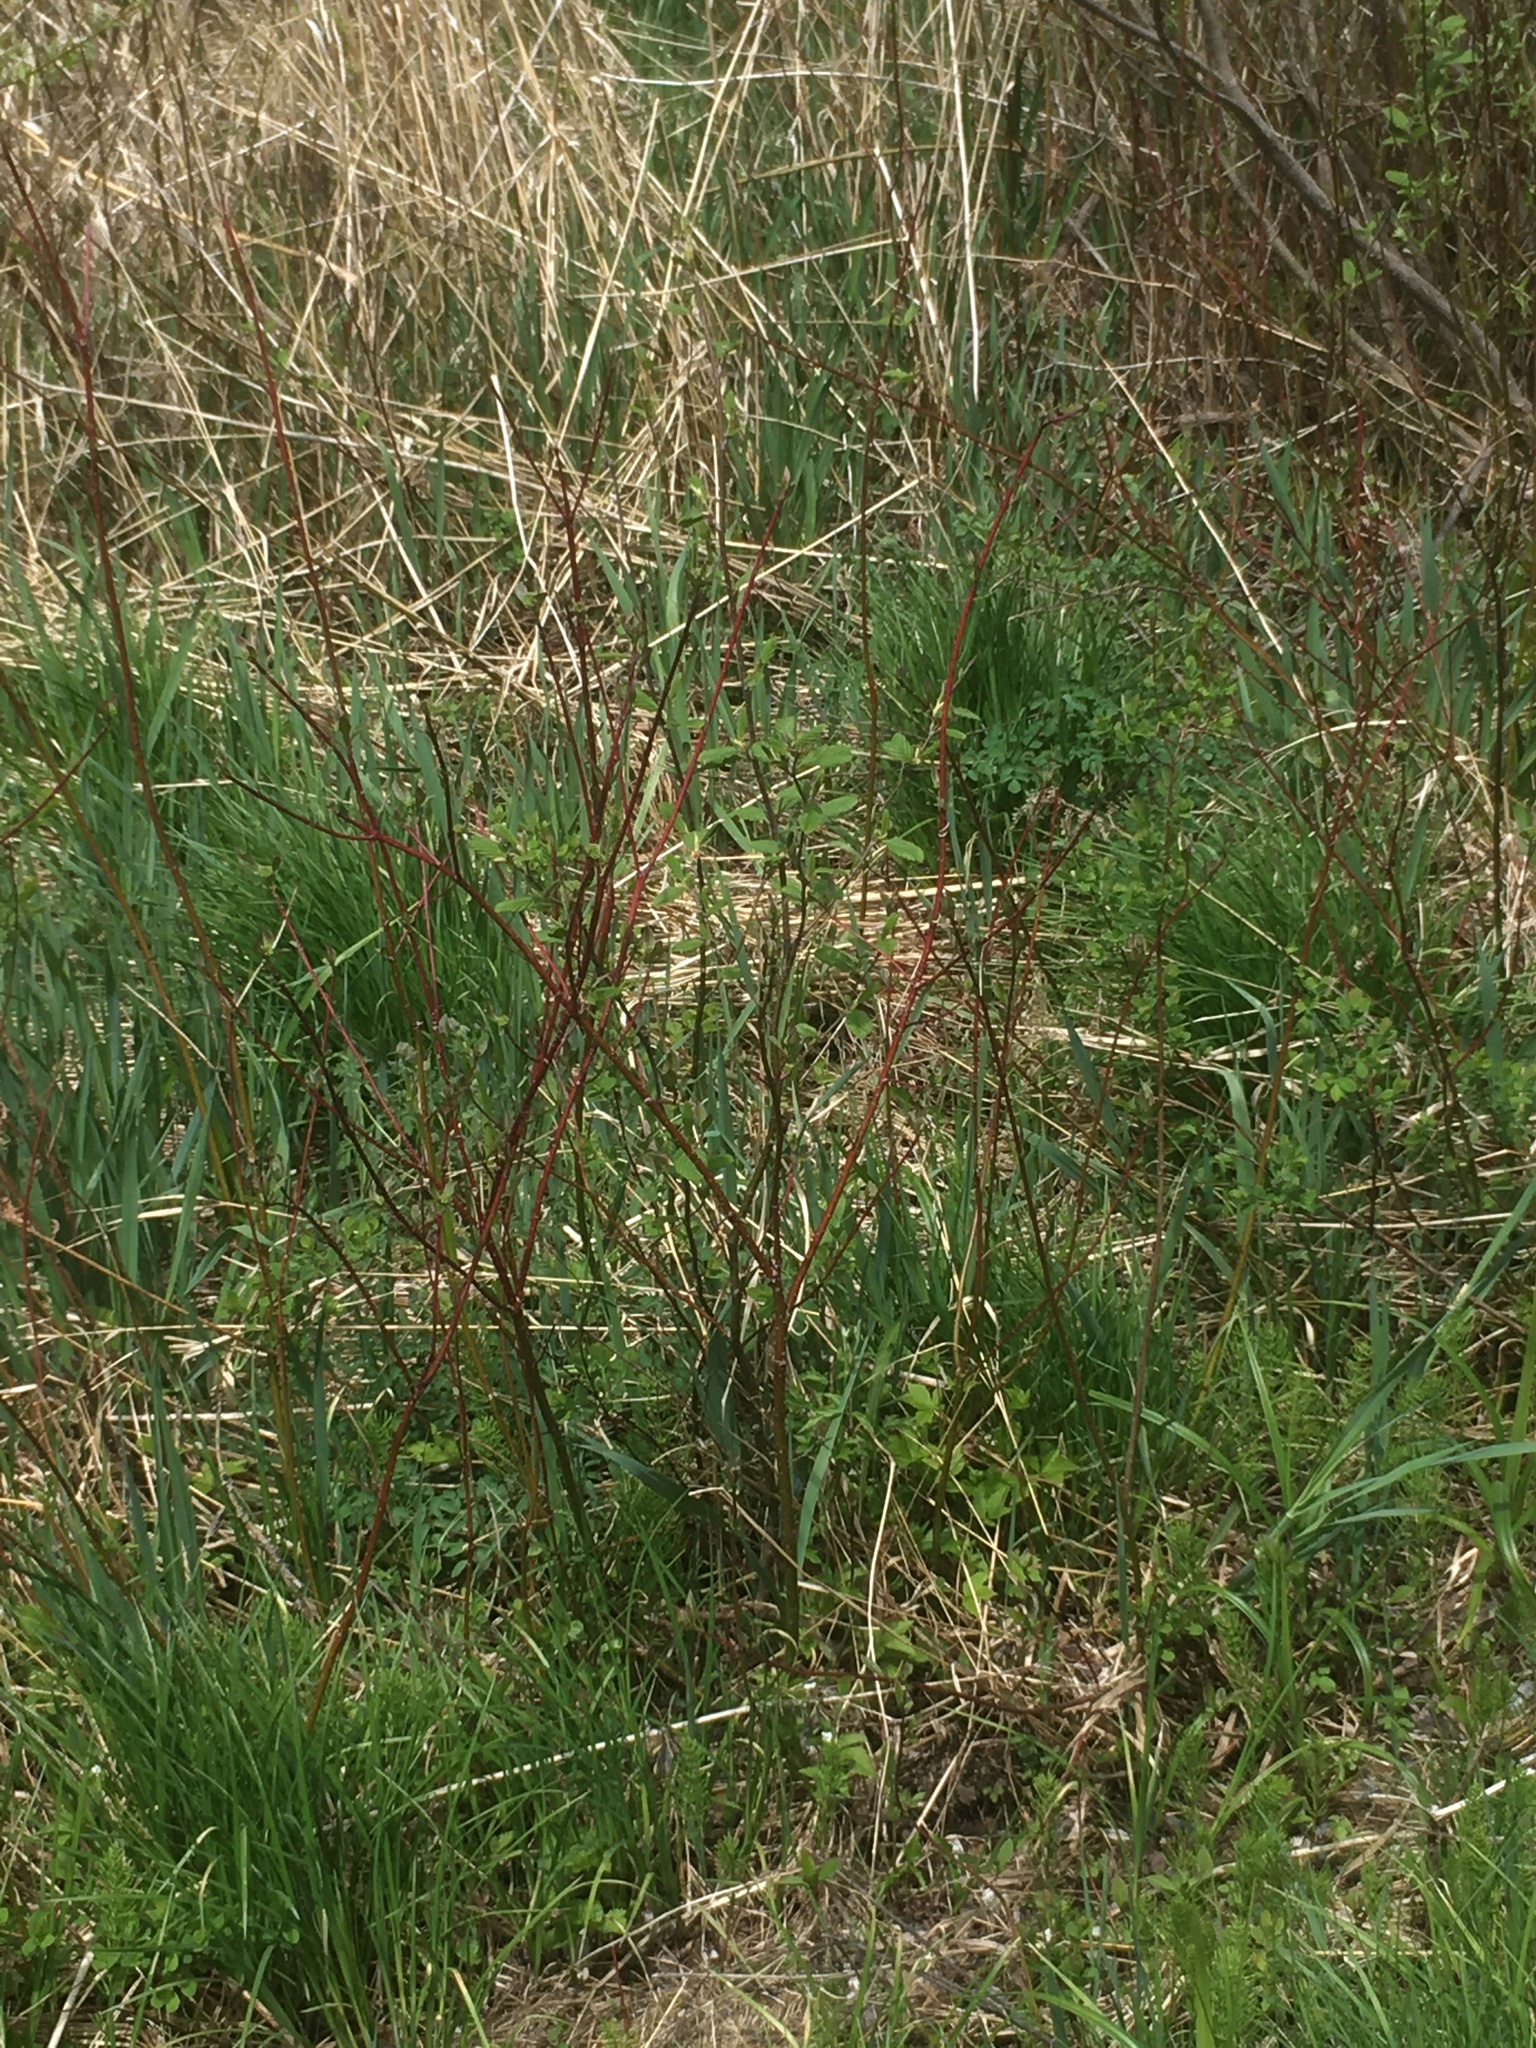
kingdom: Plantae
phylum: Tracheophyta
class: Magnoliopsida
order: Cornales
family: Cornaceae
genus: Cornus
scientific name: Cornus sericea
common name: Red-osier dogwood
